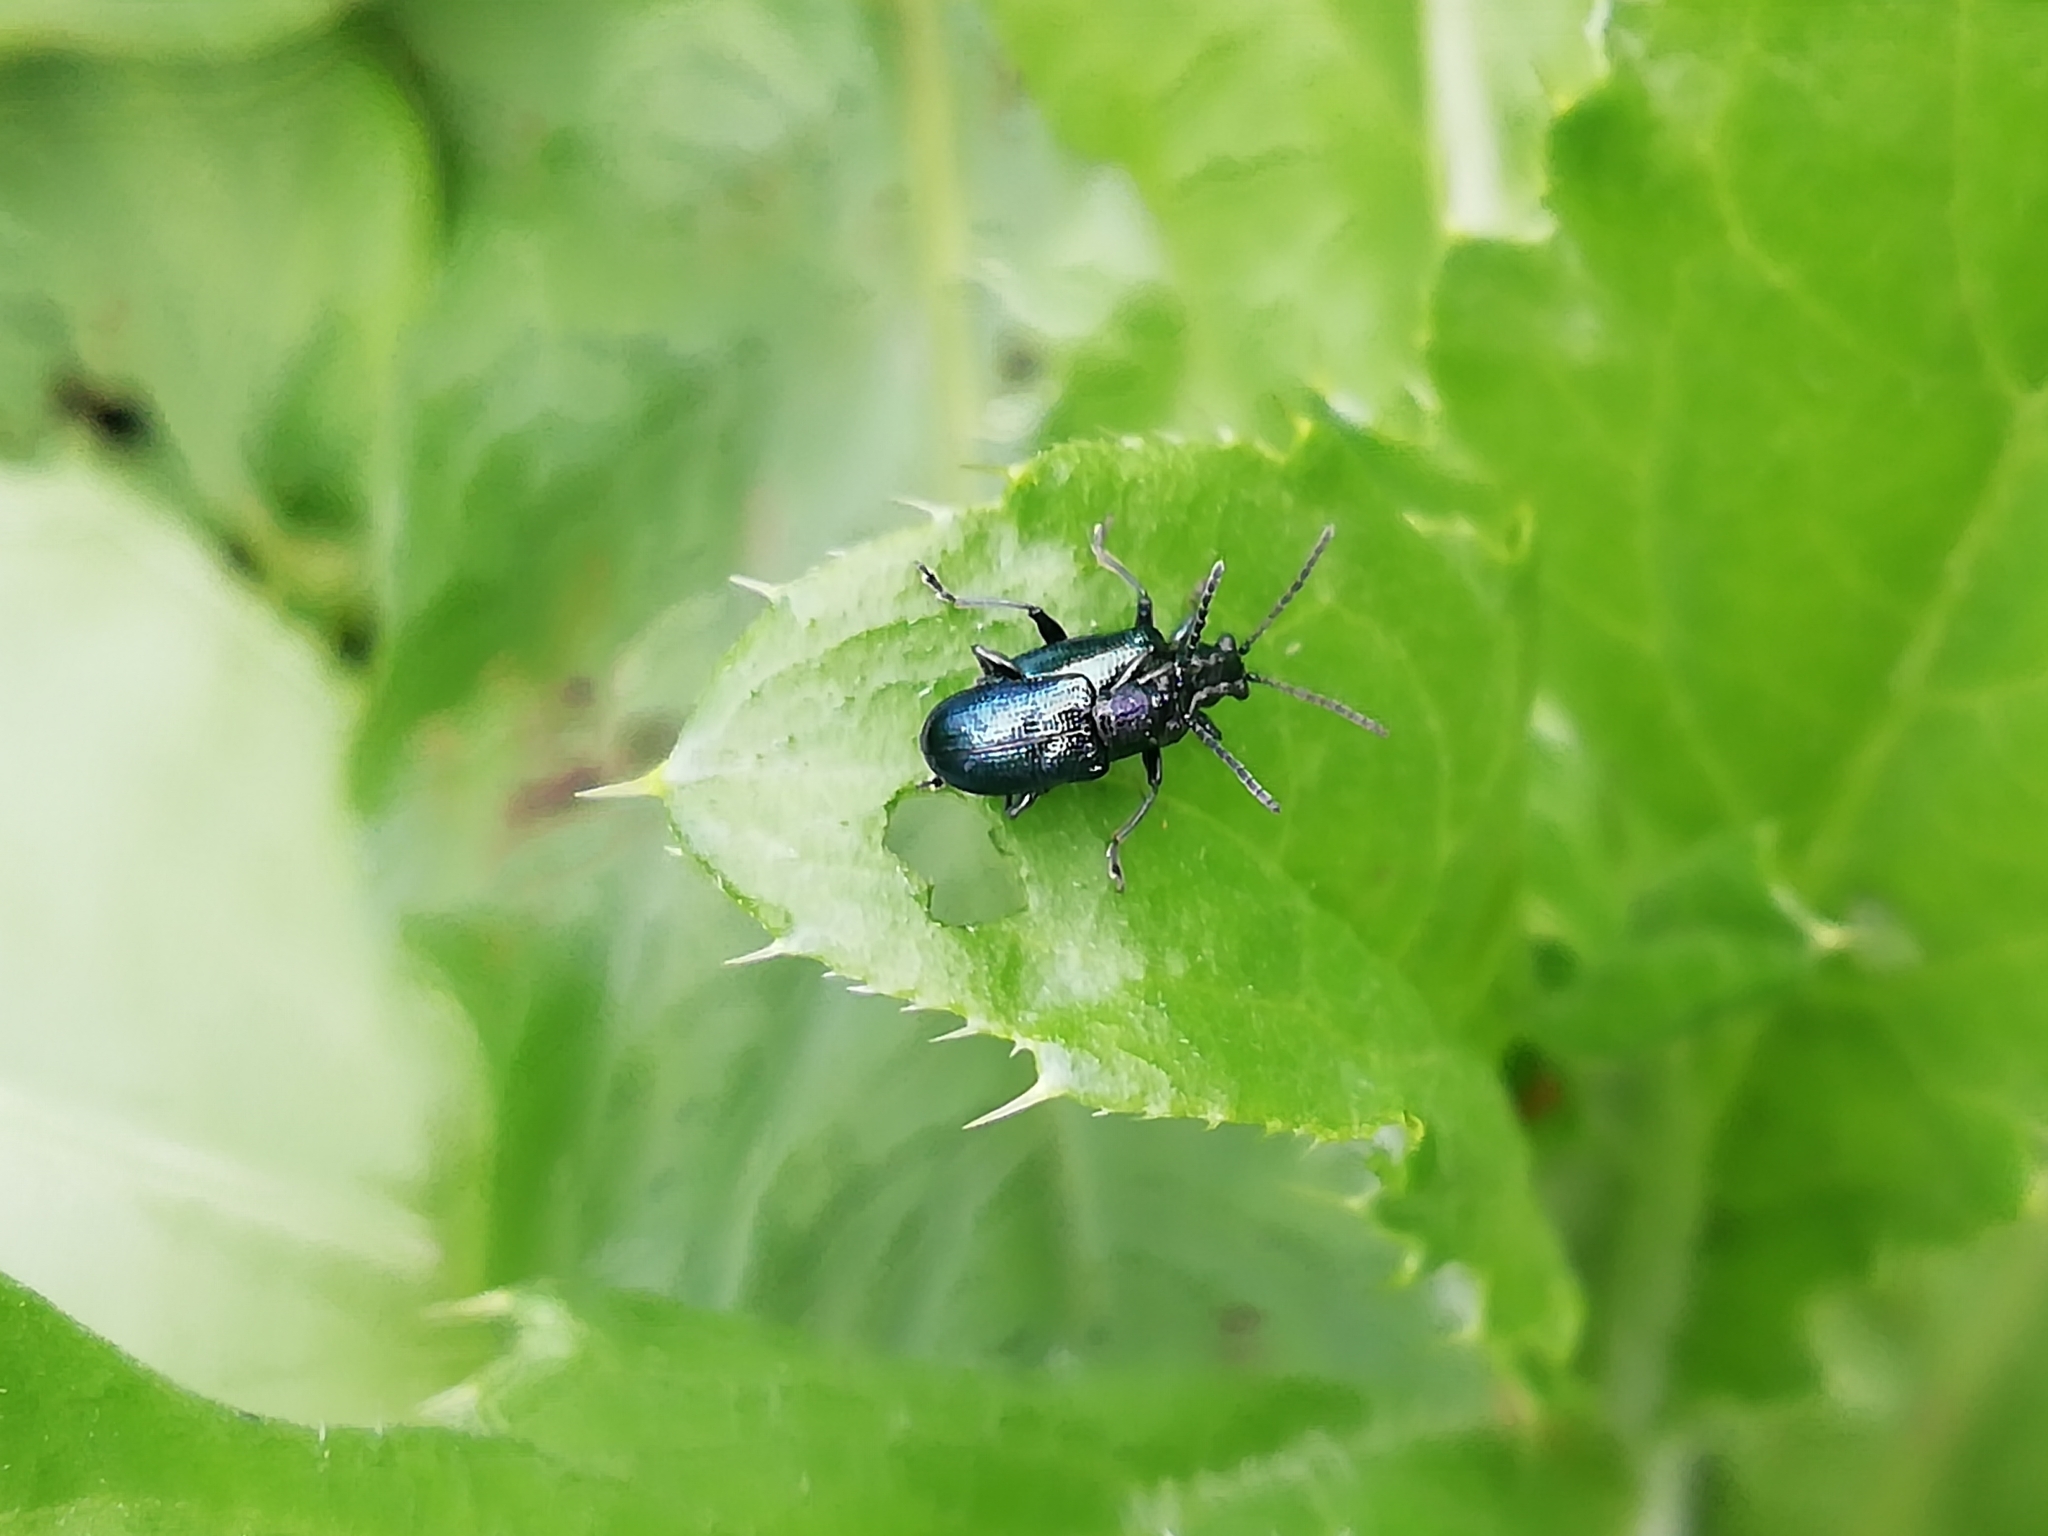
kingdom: Animalia
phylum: Arthropoda
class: Insecta
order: Coleoptera
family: Chrysomelidae
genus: Lema
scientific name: Lema cyanella
